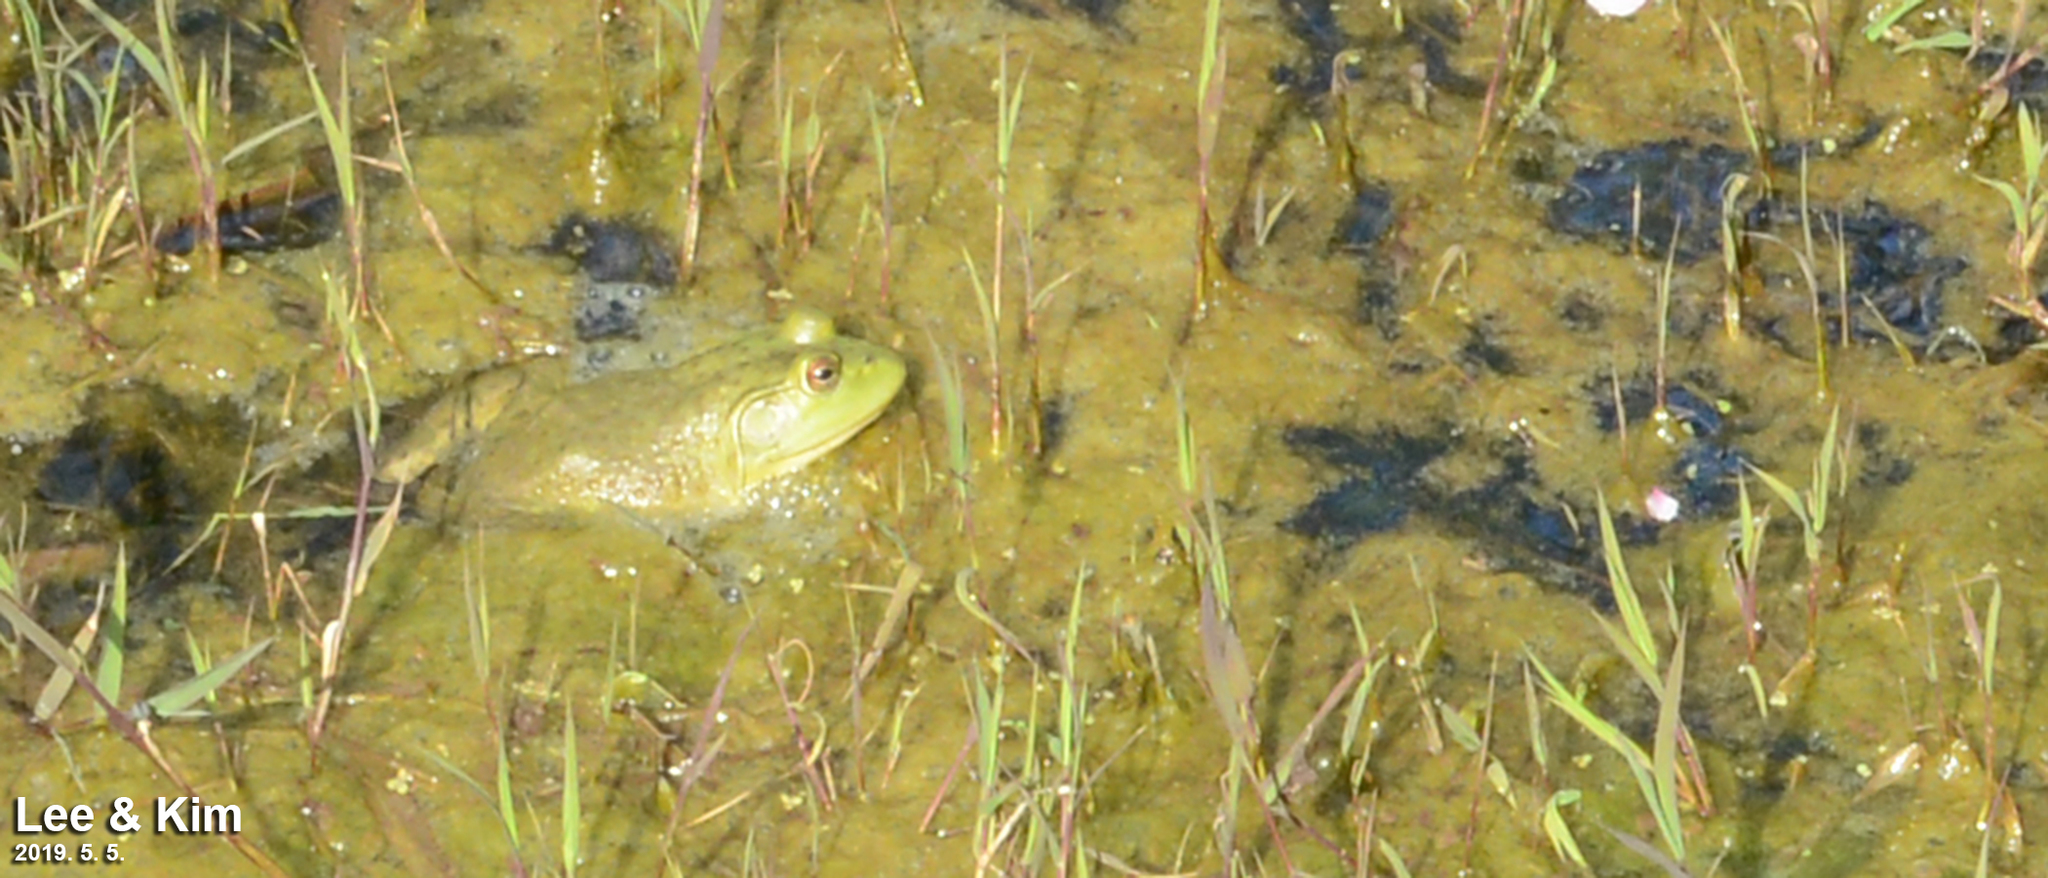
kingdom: Animalia
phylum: Chordata
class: Amphibia
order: Anura
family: Ranidae
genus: Lithobates
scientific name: Lithobates catesbeianus
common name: American bullfrog
